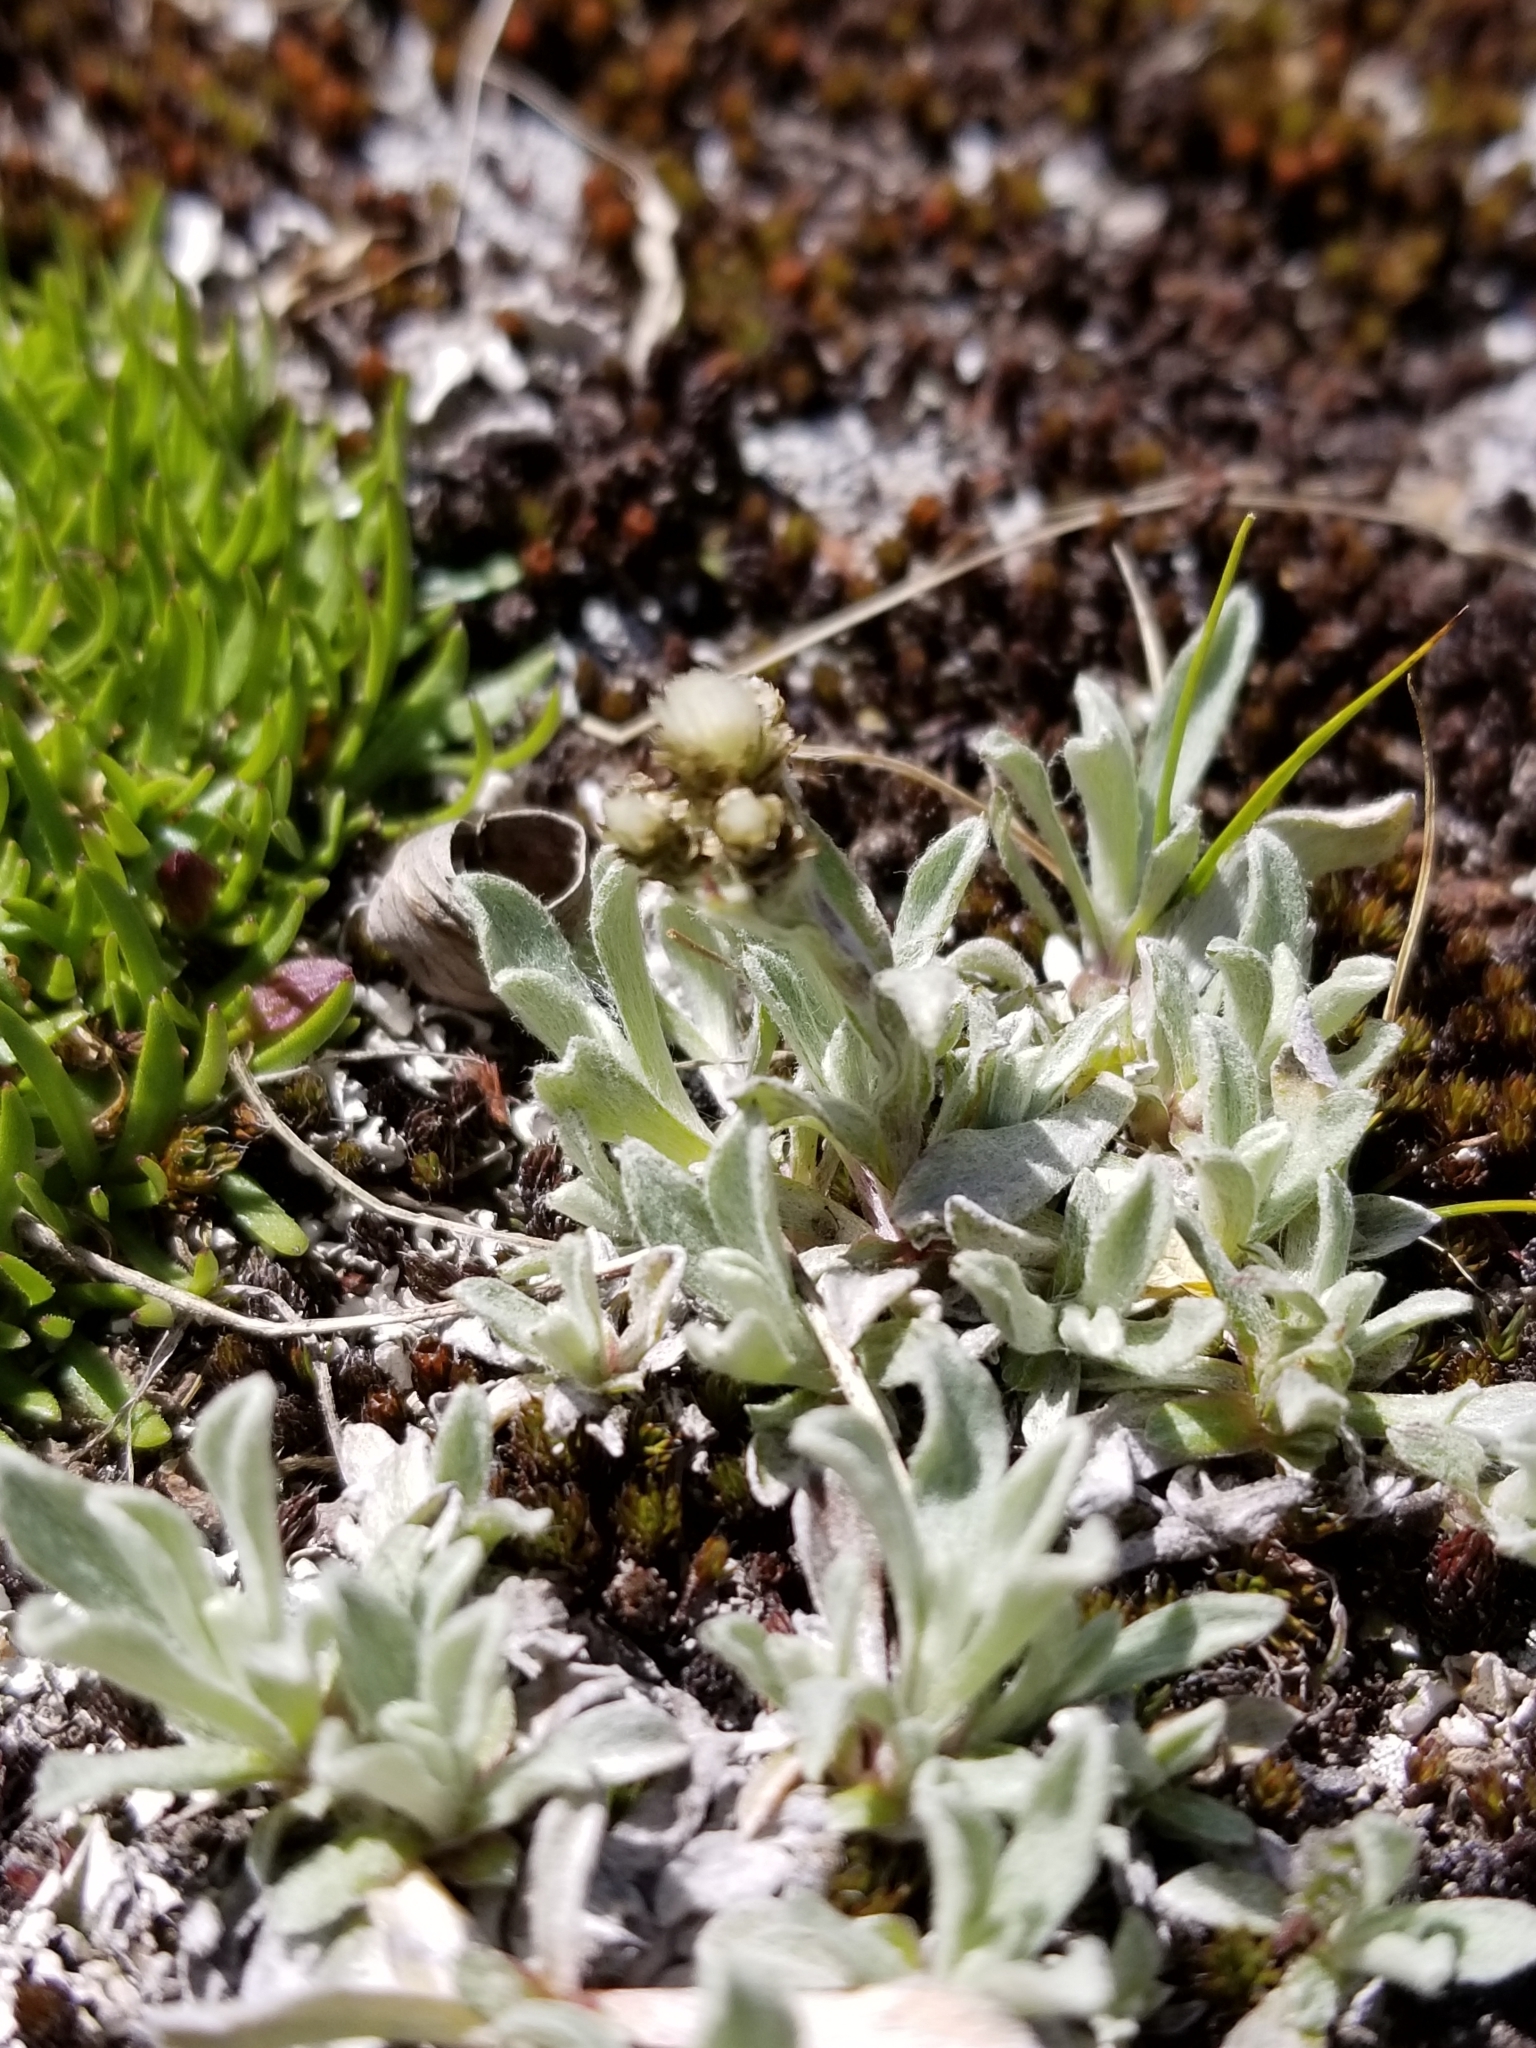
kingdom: Plantae
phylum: Tracheophyta
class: Magnoliopsida
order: Asterales
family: Asteraceae
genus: Antennaria
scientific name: Antennaria media
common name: Rocky mountain pussytoes
